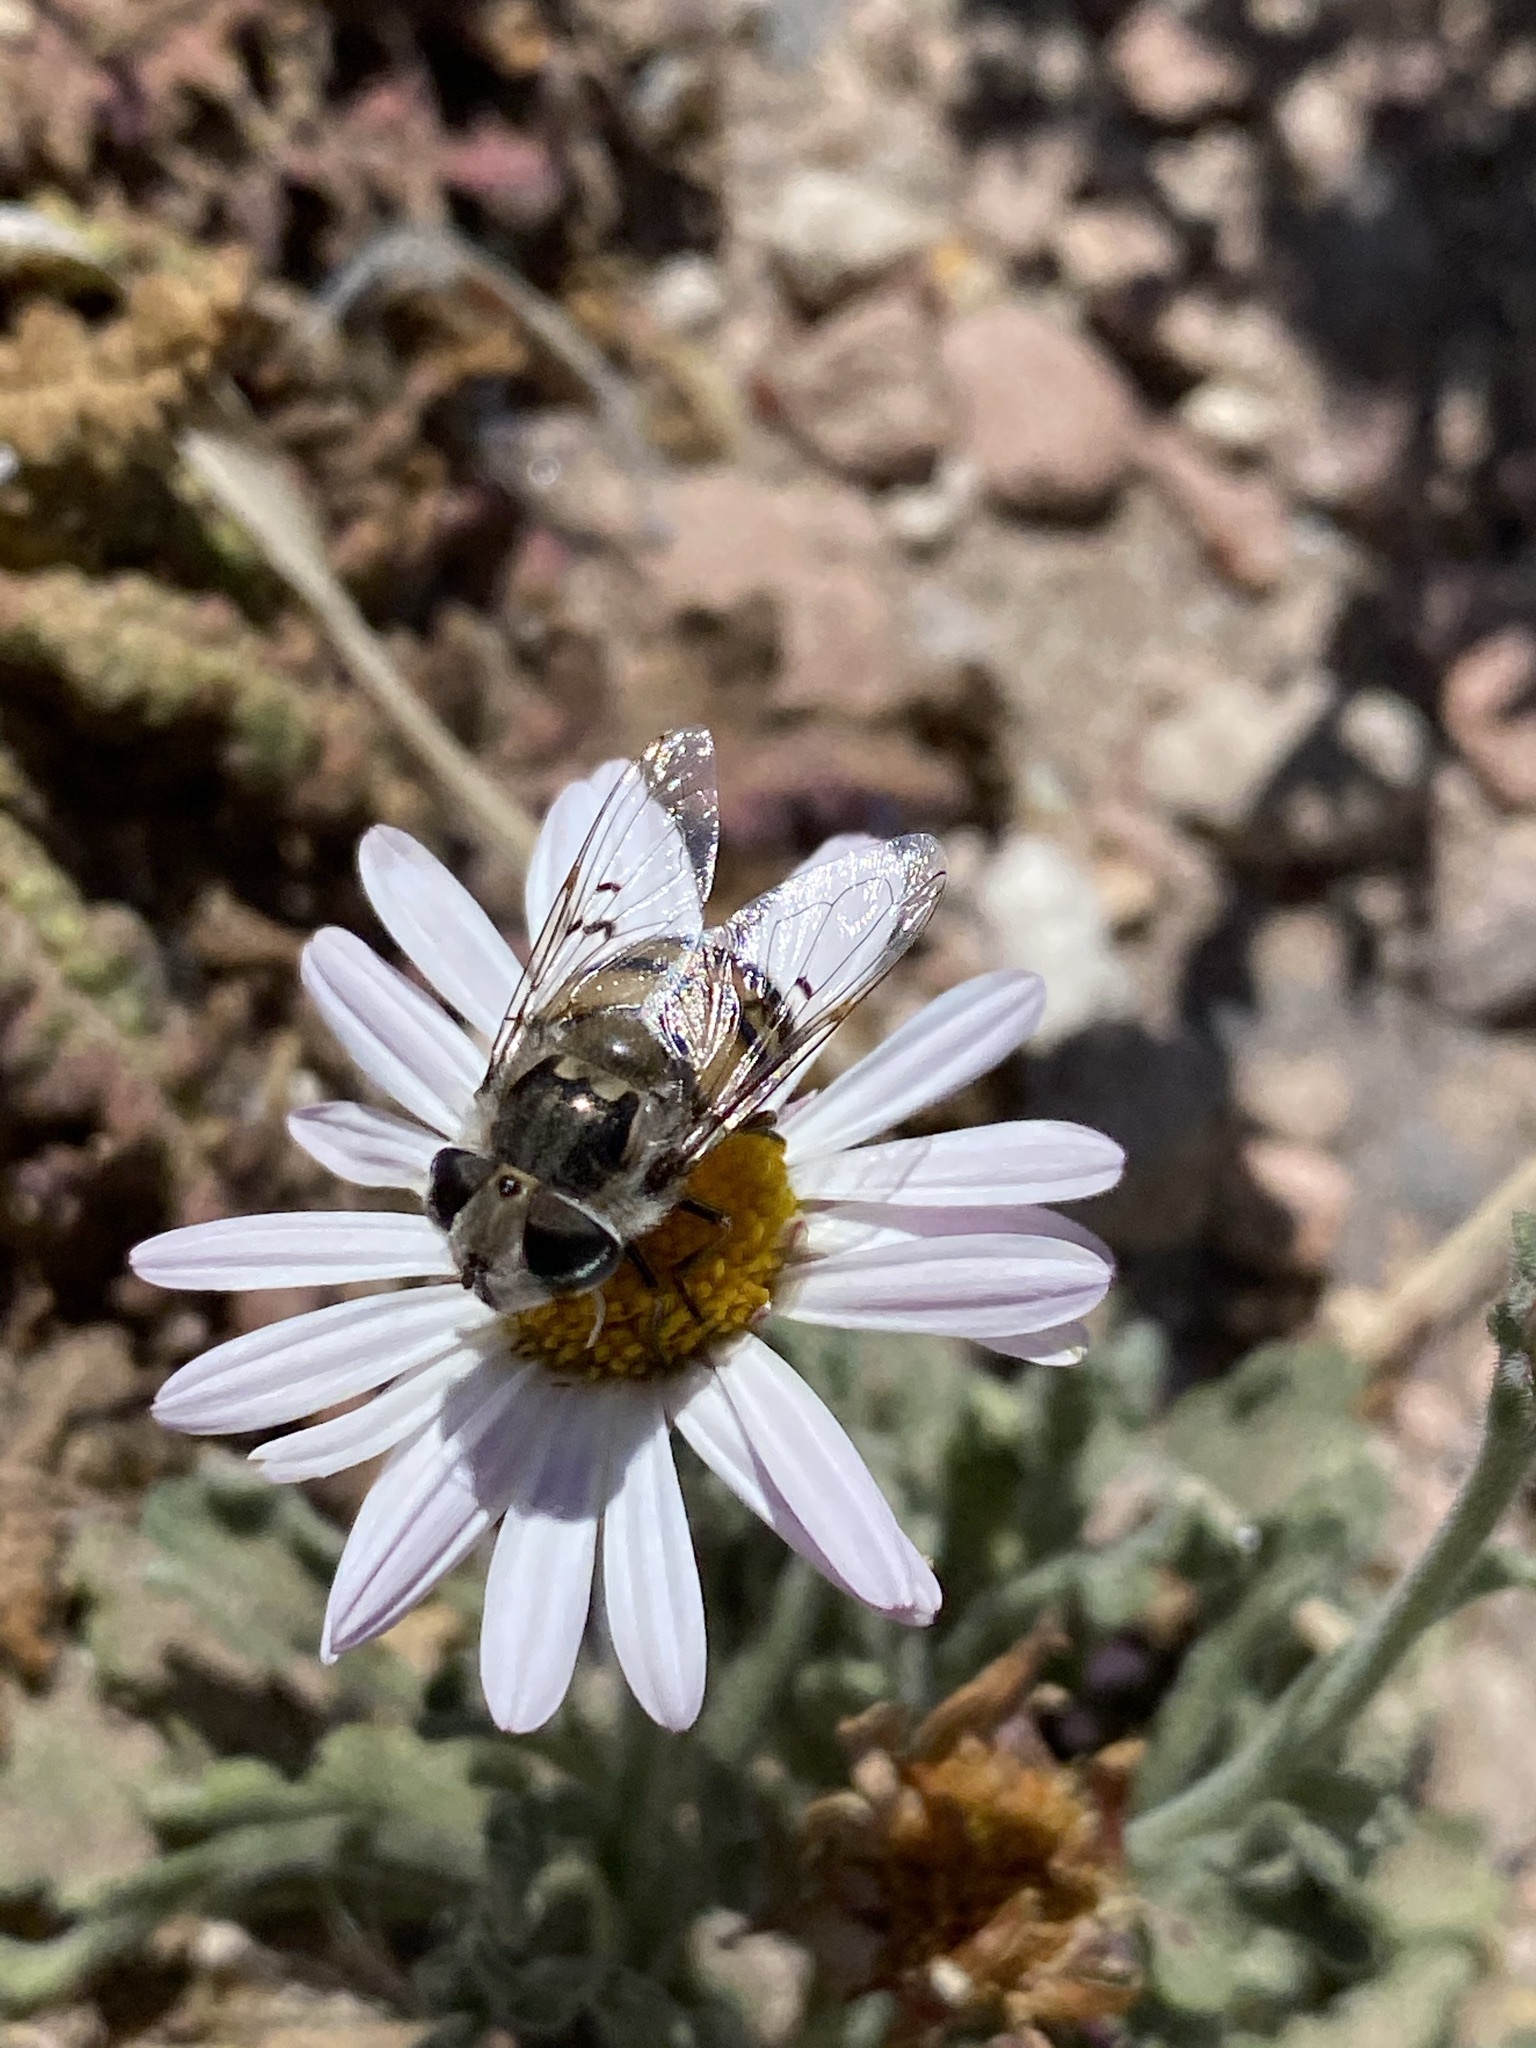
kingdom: Animalia
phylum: Arthropoda
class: Insecta
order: Diptera
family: Syrphidae
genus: Copestylum
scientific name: Copestylum avidum
